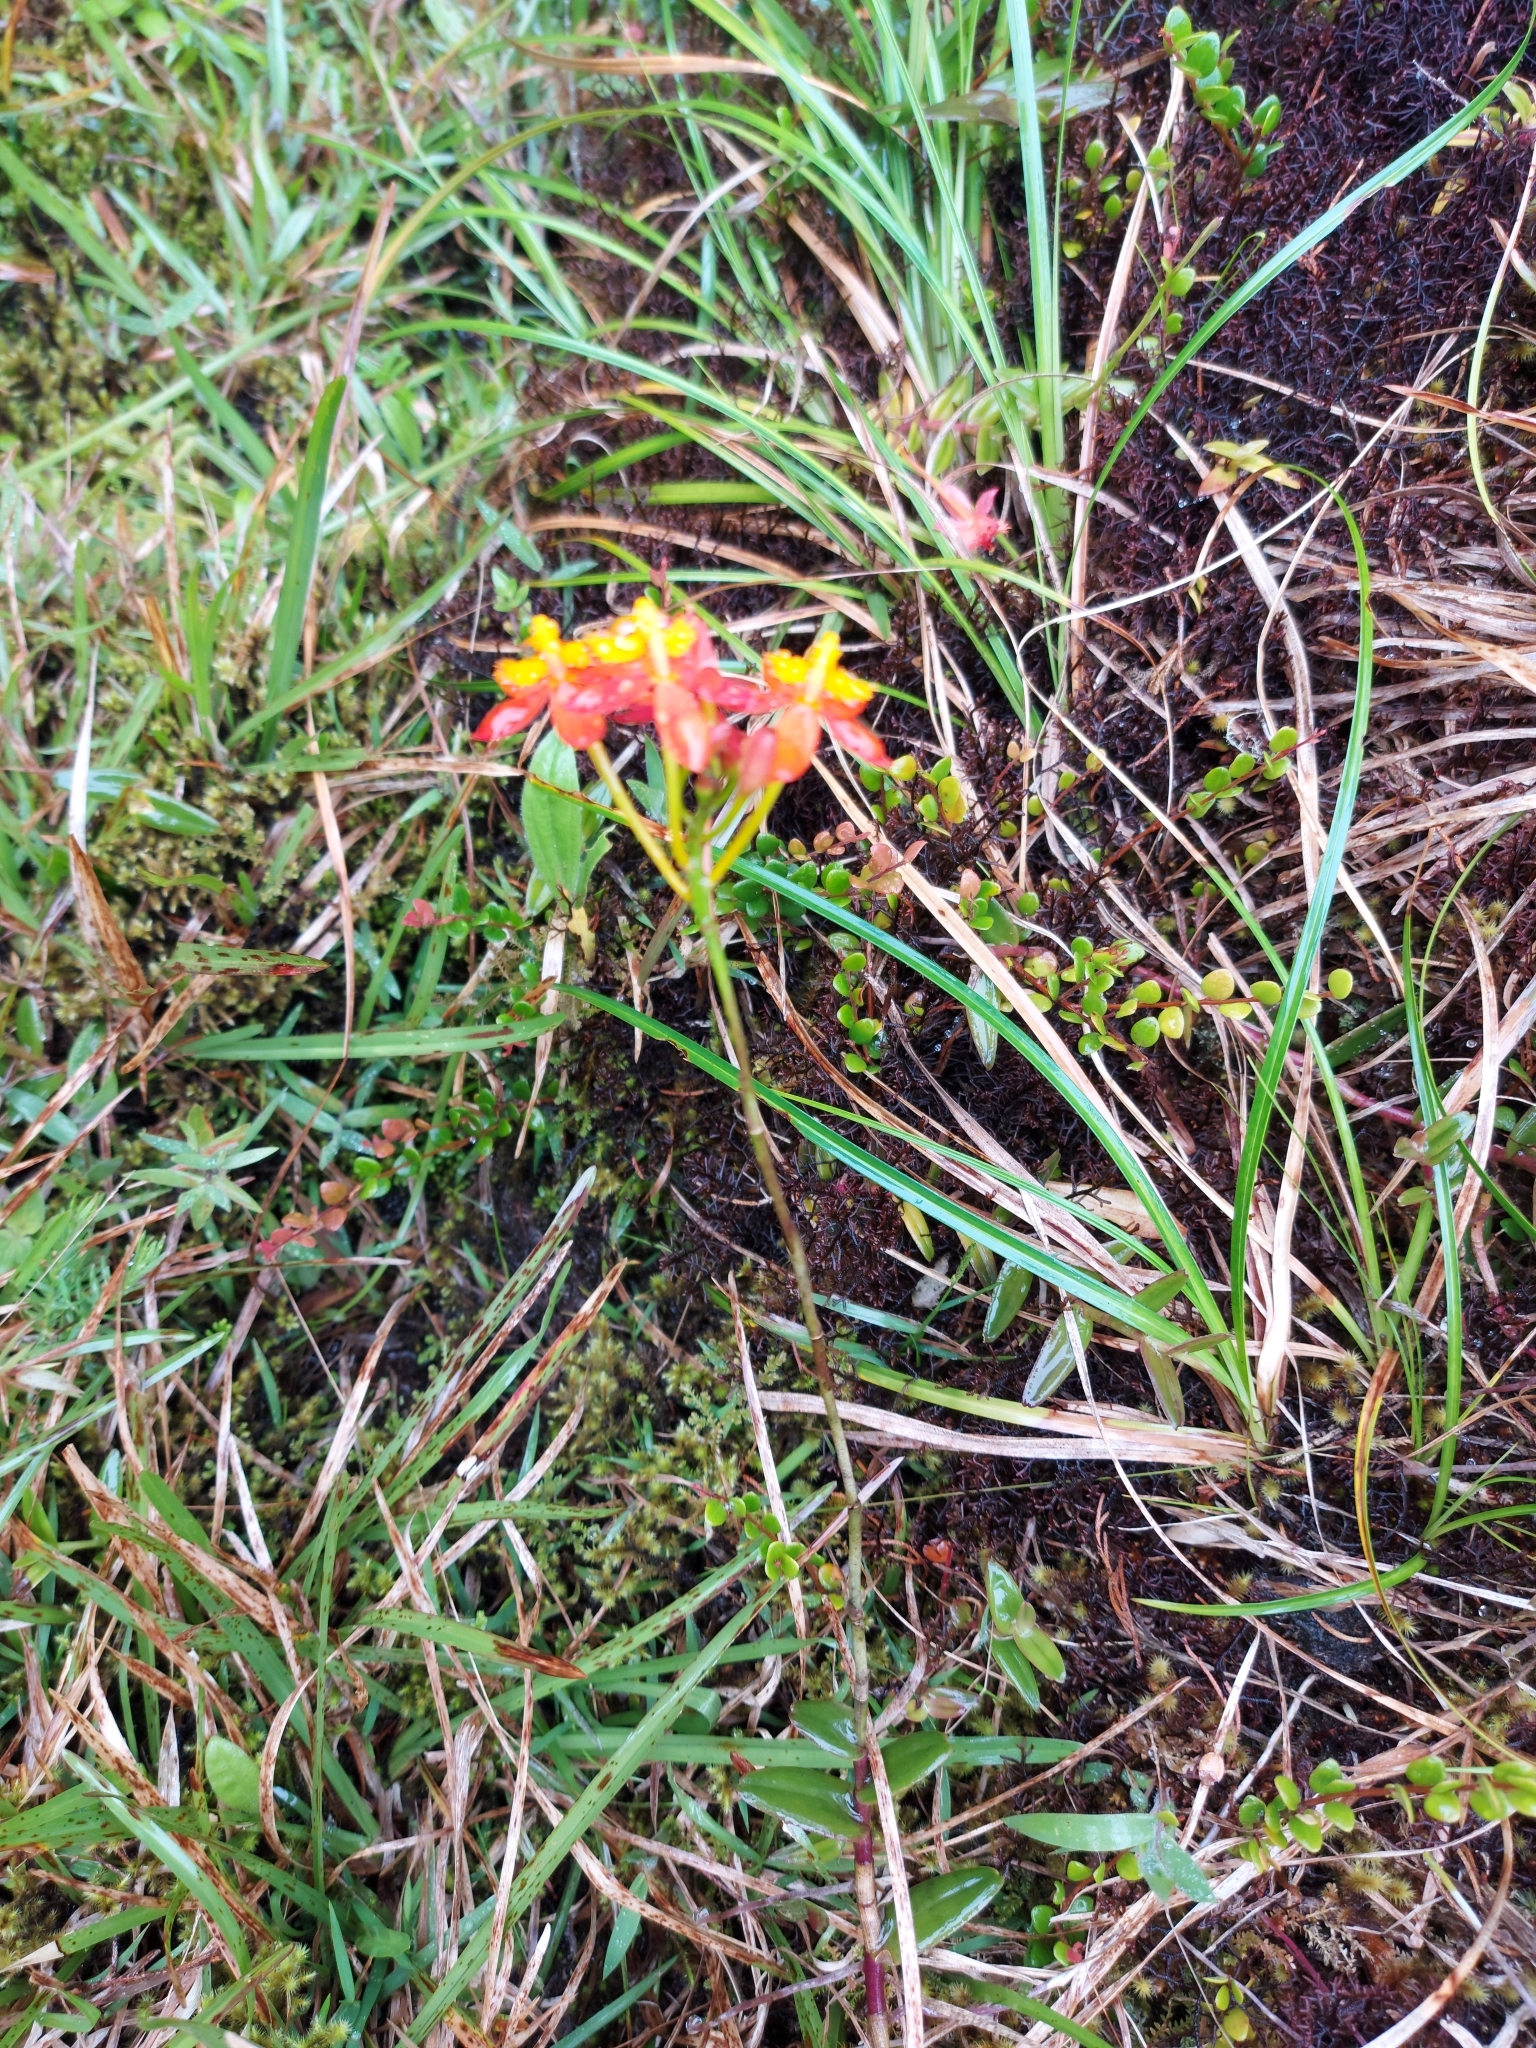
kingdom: Plantae
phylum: Tracheophyta
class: Liliopsida
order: Asparagales
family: Orchidaceae
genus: Epidendrum
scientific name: Epidendrum radicans
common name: Fire star orchid
